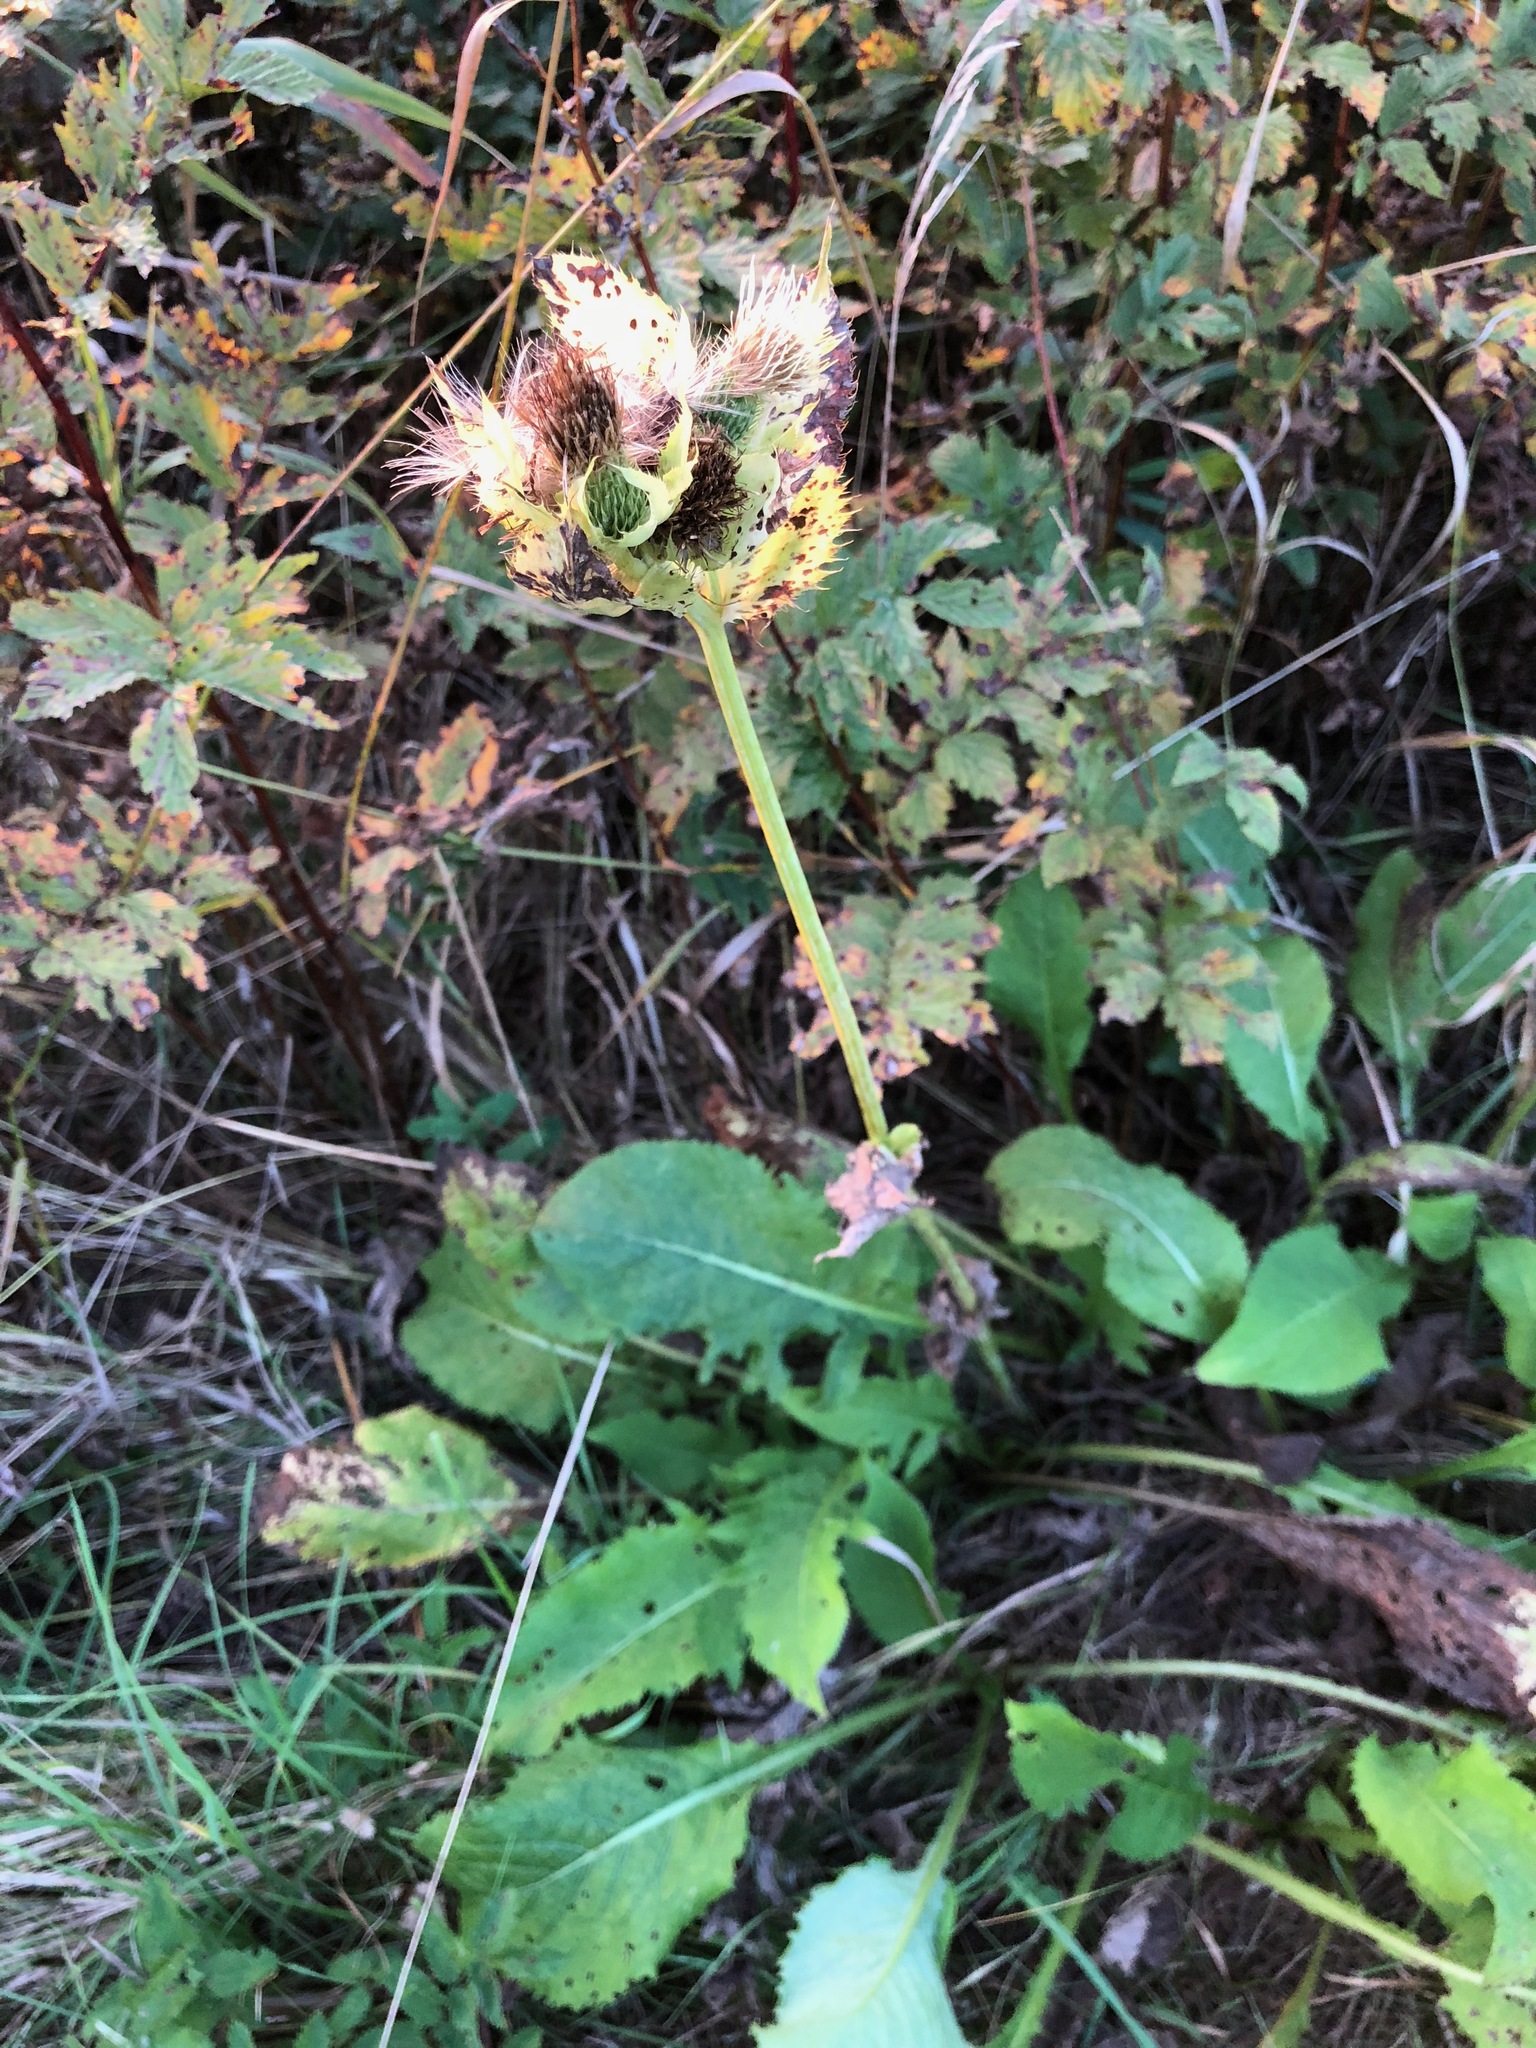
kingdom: Plantae
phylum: Tracheophyta
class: Magnoliopsida
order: Asterales
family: Asteraceae
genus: Cirsium
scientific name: Cirsium oleraceum
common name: Cabbage thistle
